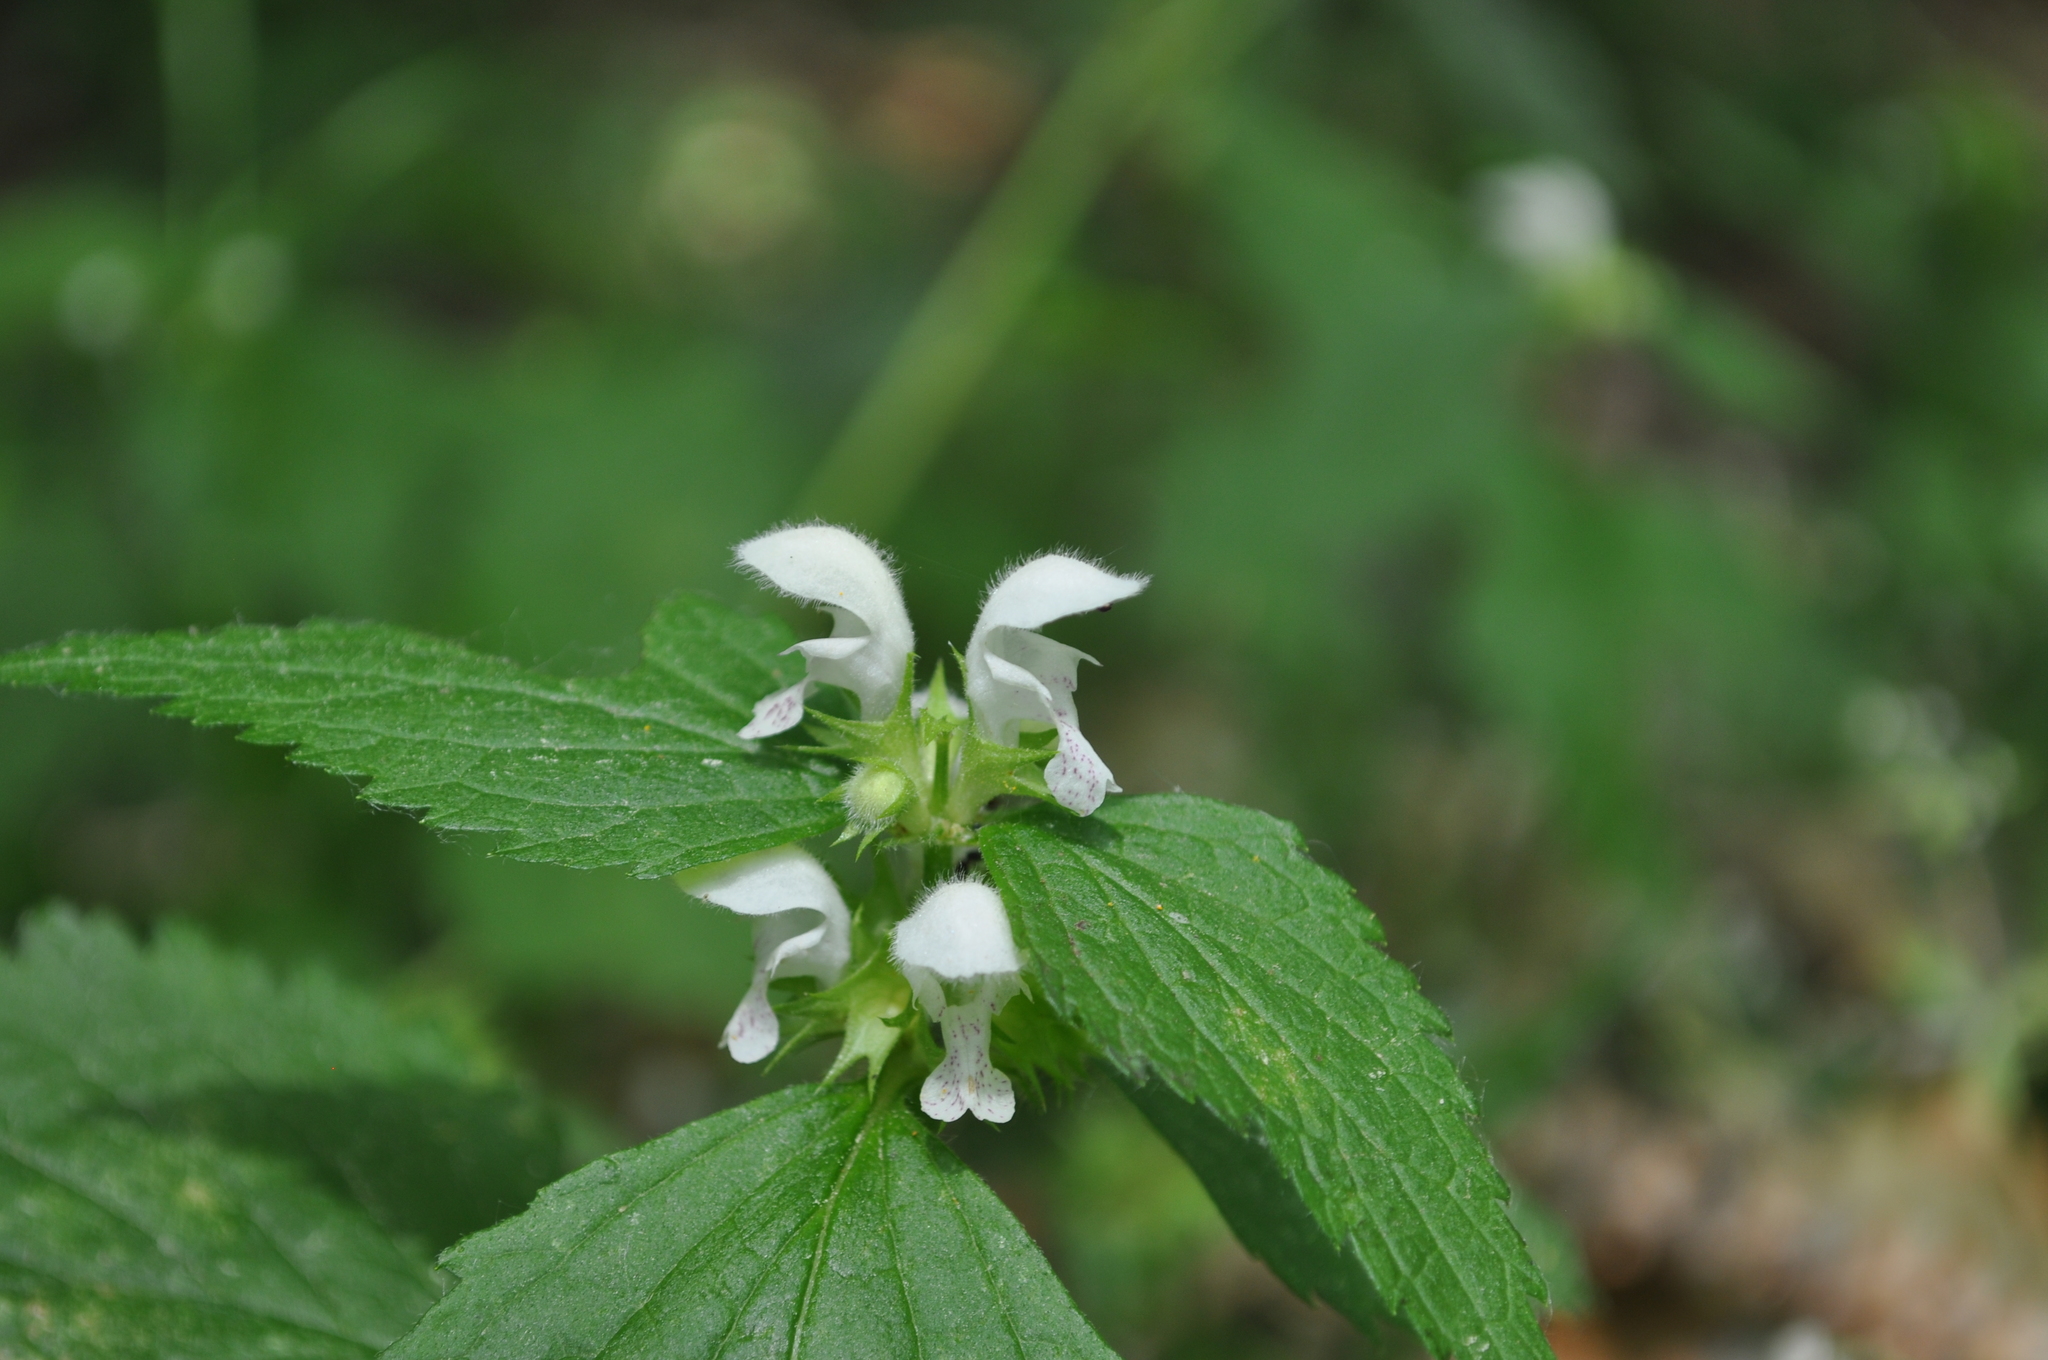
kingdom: Plantae
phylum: Tracheophyta
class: Magnoliopsida
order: Lamiales
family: Lamiaceae
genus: Lamium
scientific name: Lamium flexuosum
